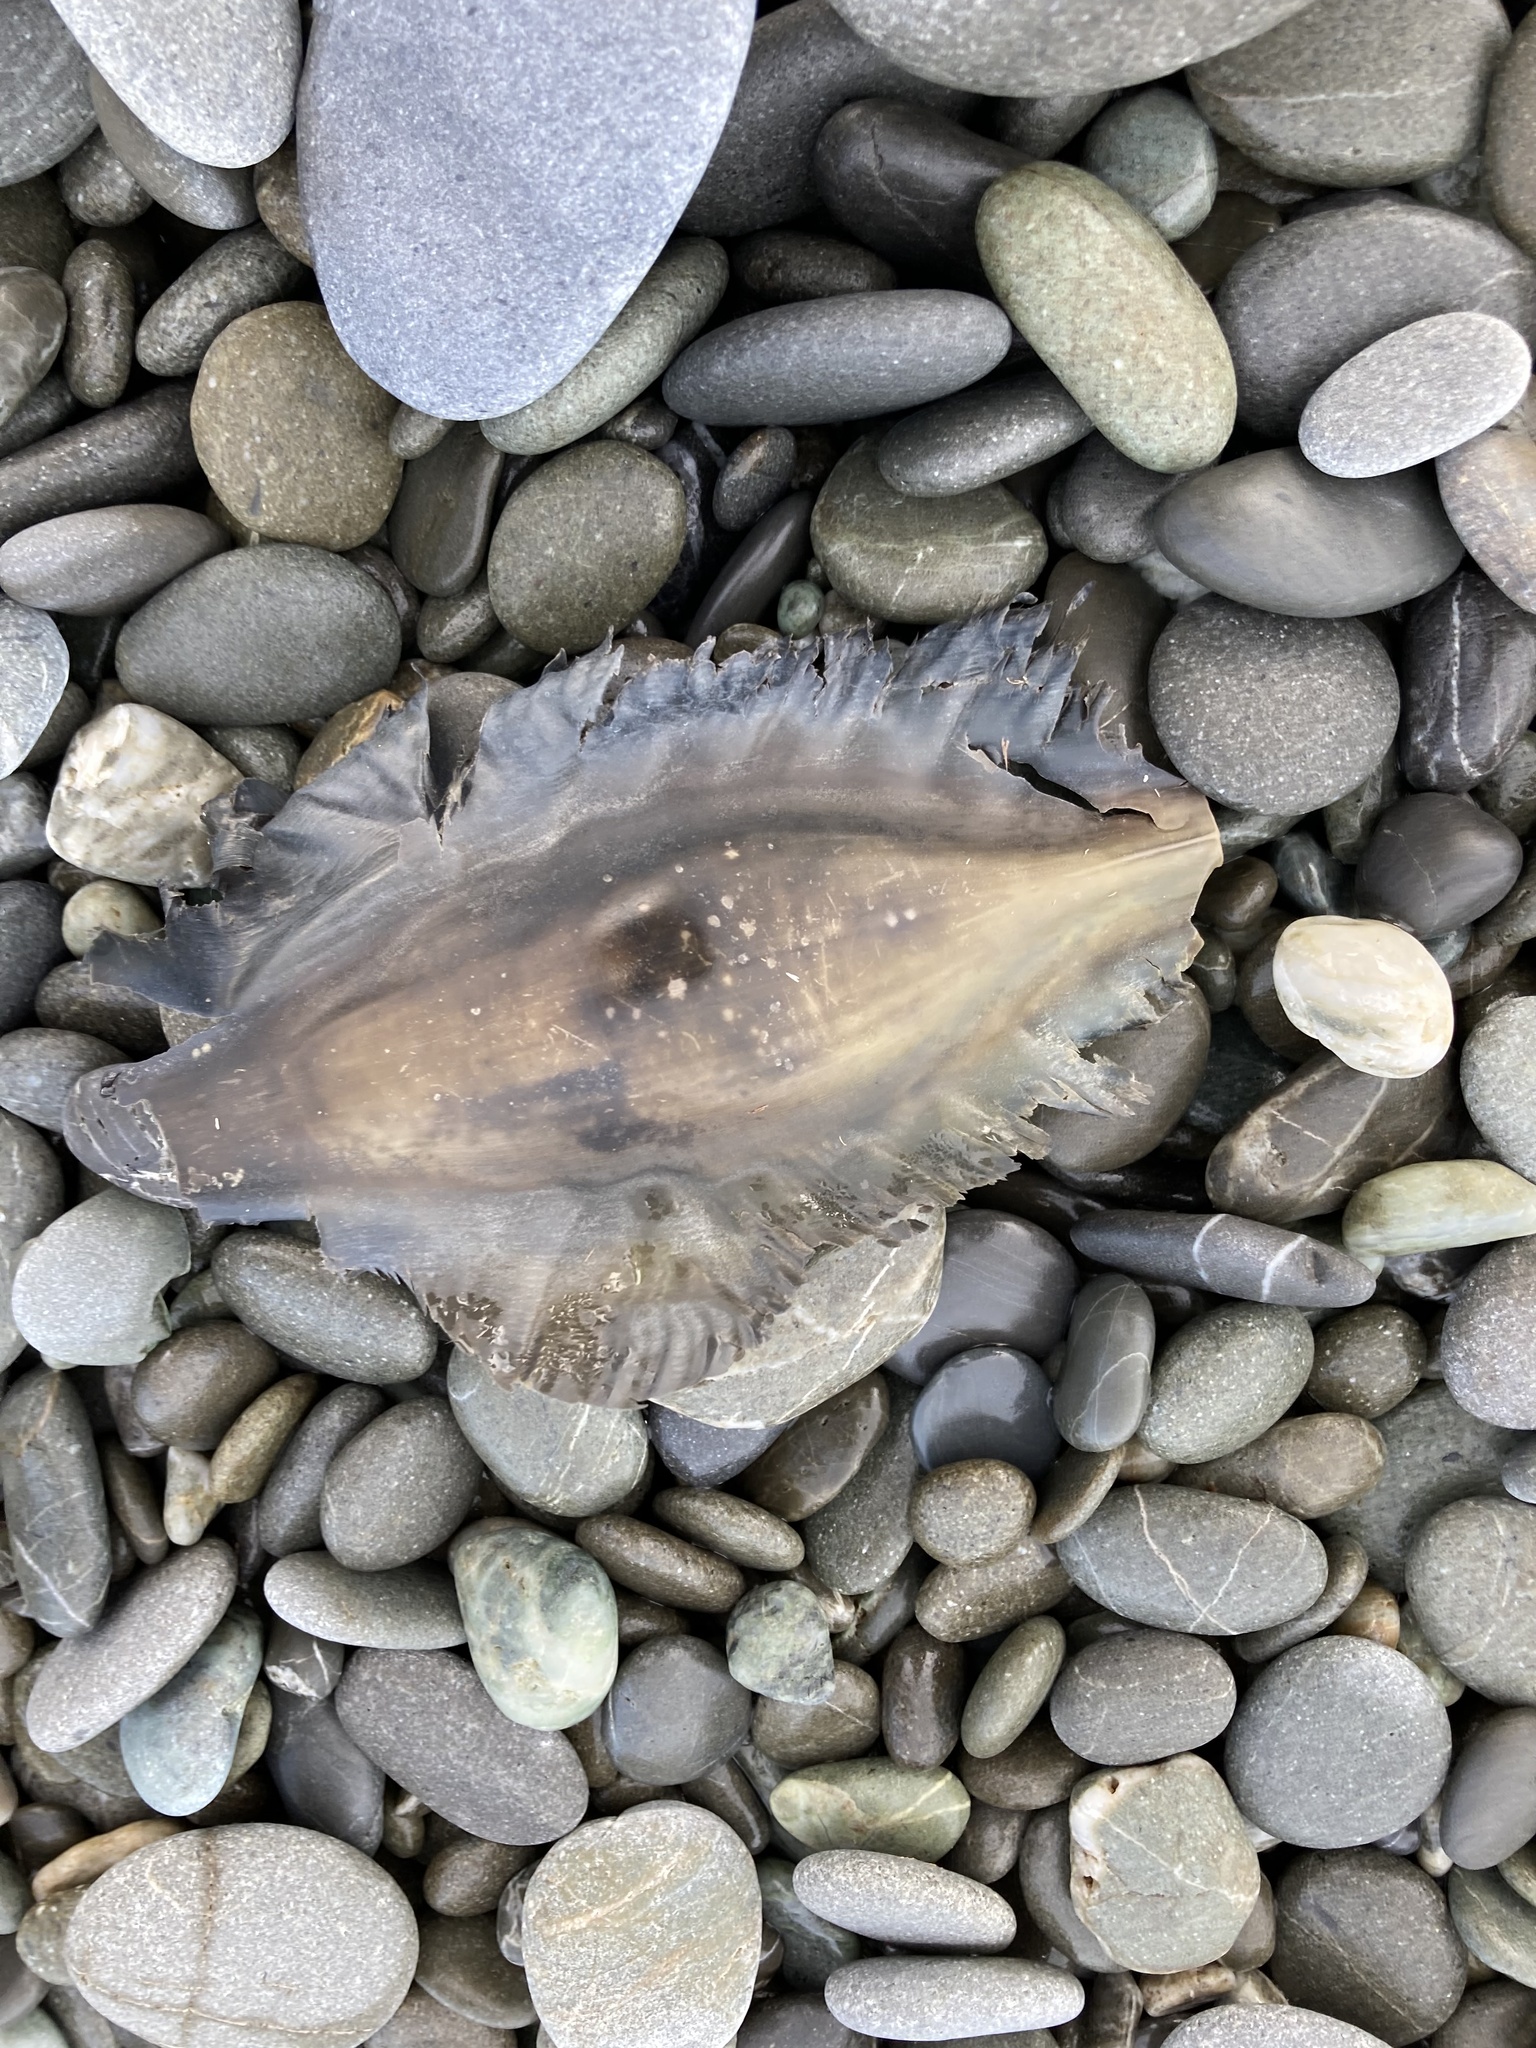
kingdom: Animalia
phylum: Chordata
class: Holocephali
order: Chimaeriformes
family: Callorhinchidae
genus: Callorhinchus
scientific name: Callorhinchus milii
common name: Elephant fish
